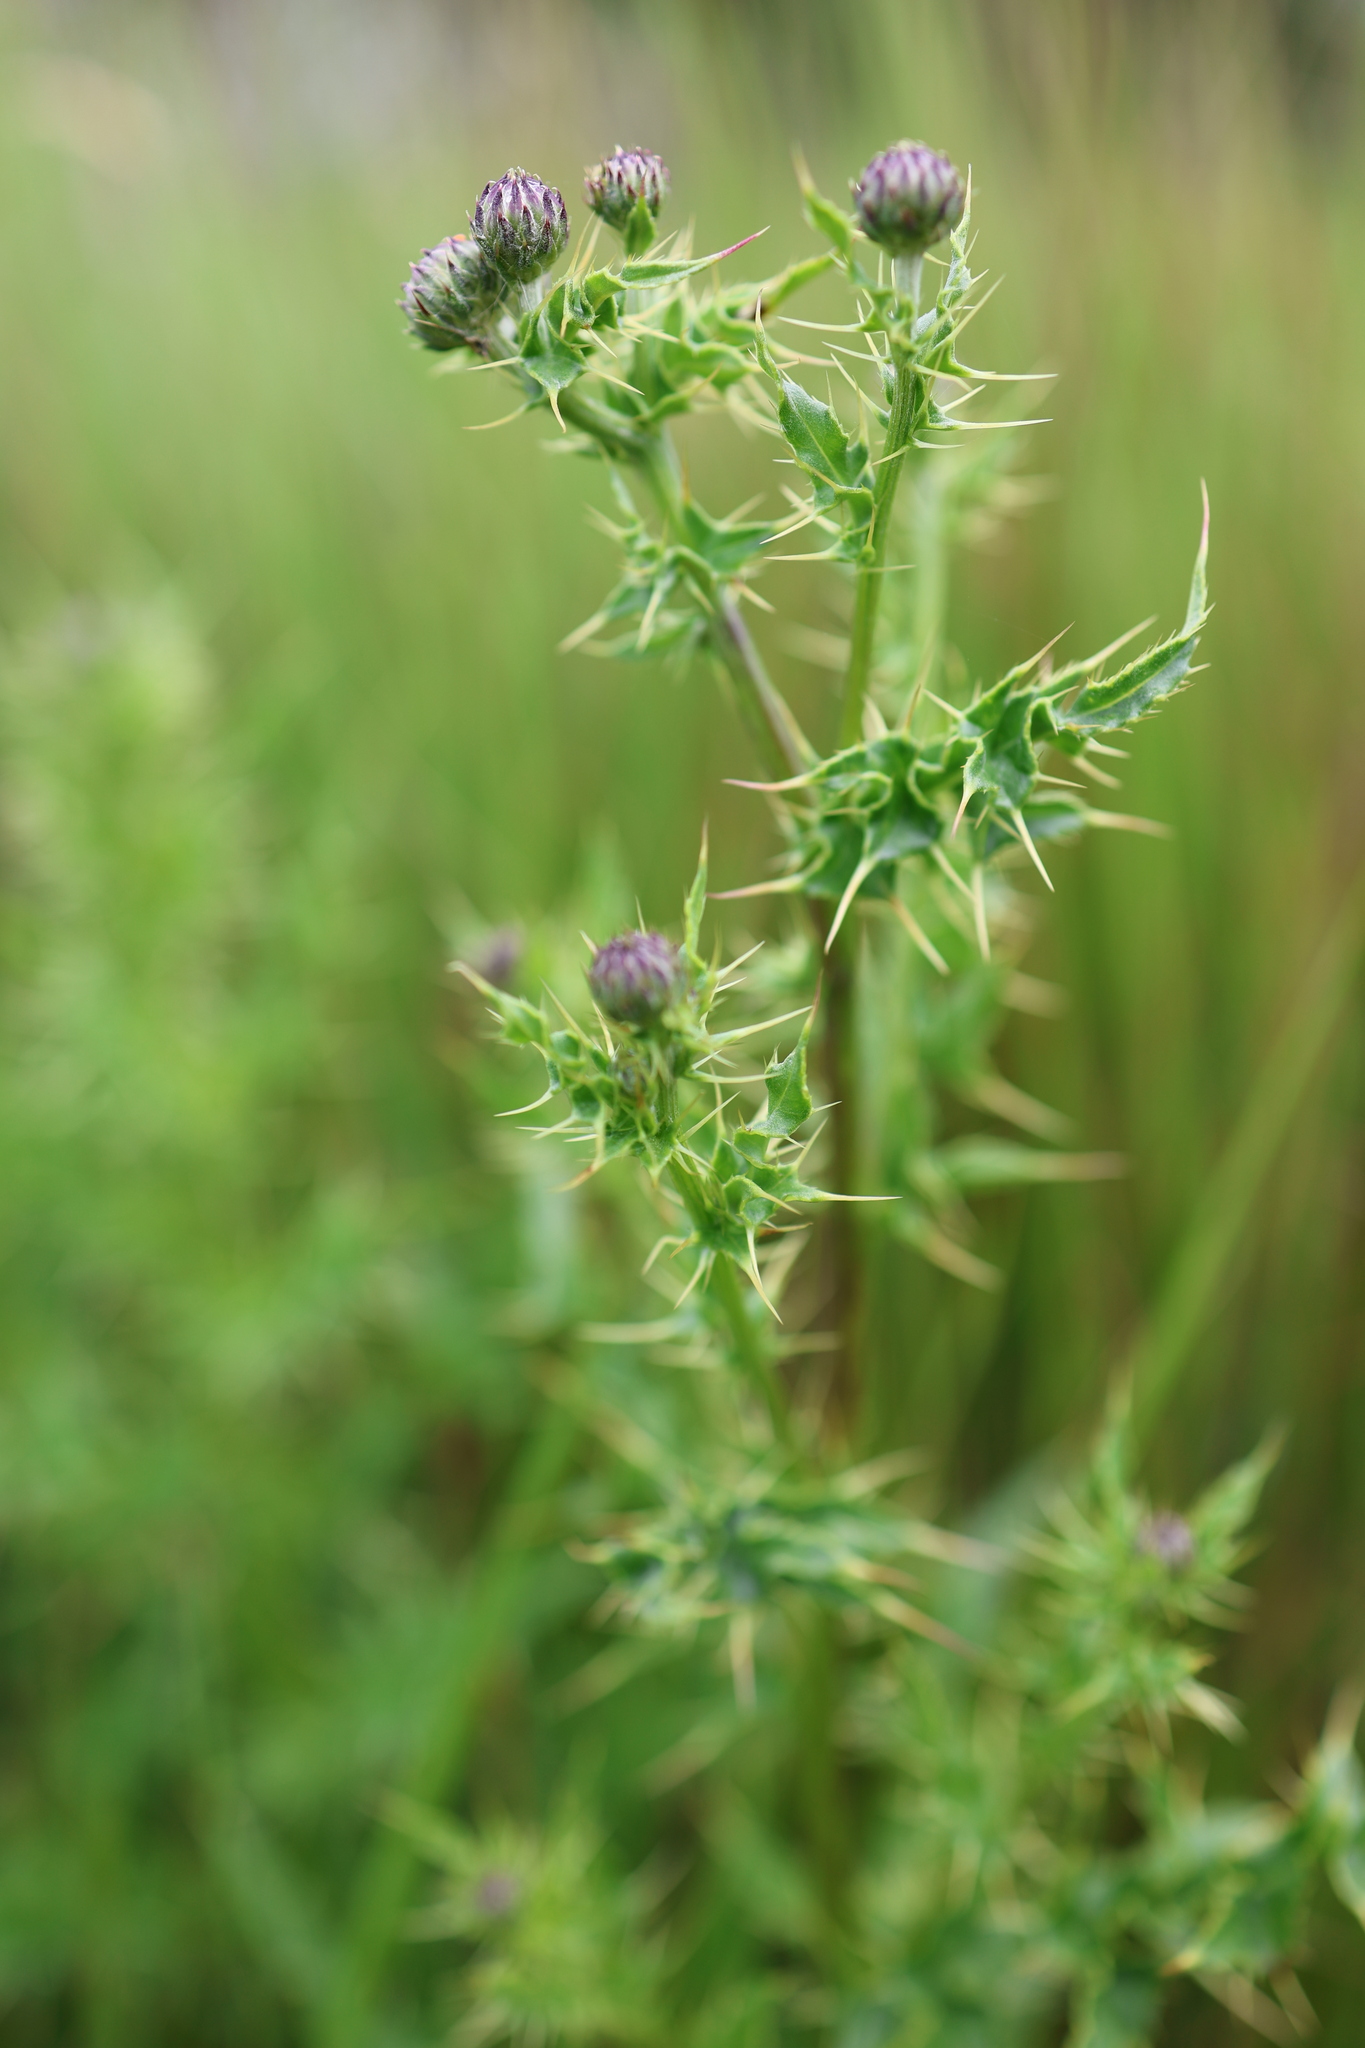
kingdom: Plantae
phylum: Tracheophyta
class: Magnoliopsida
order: Asterales
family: Asteraceae
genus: Cirsium
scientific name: Cirsium arvense
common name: Creeping thistle
